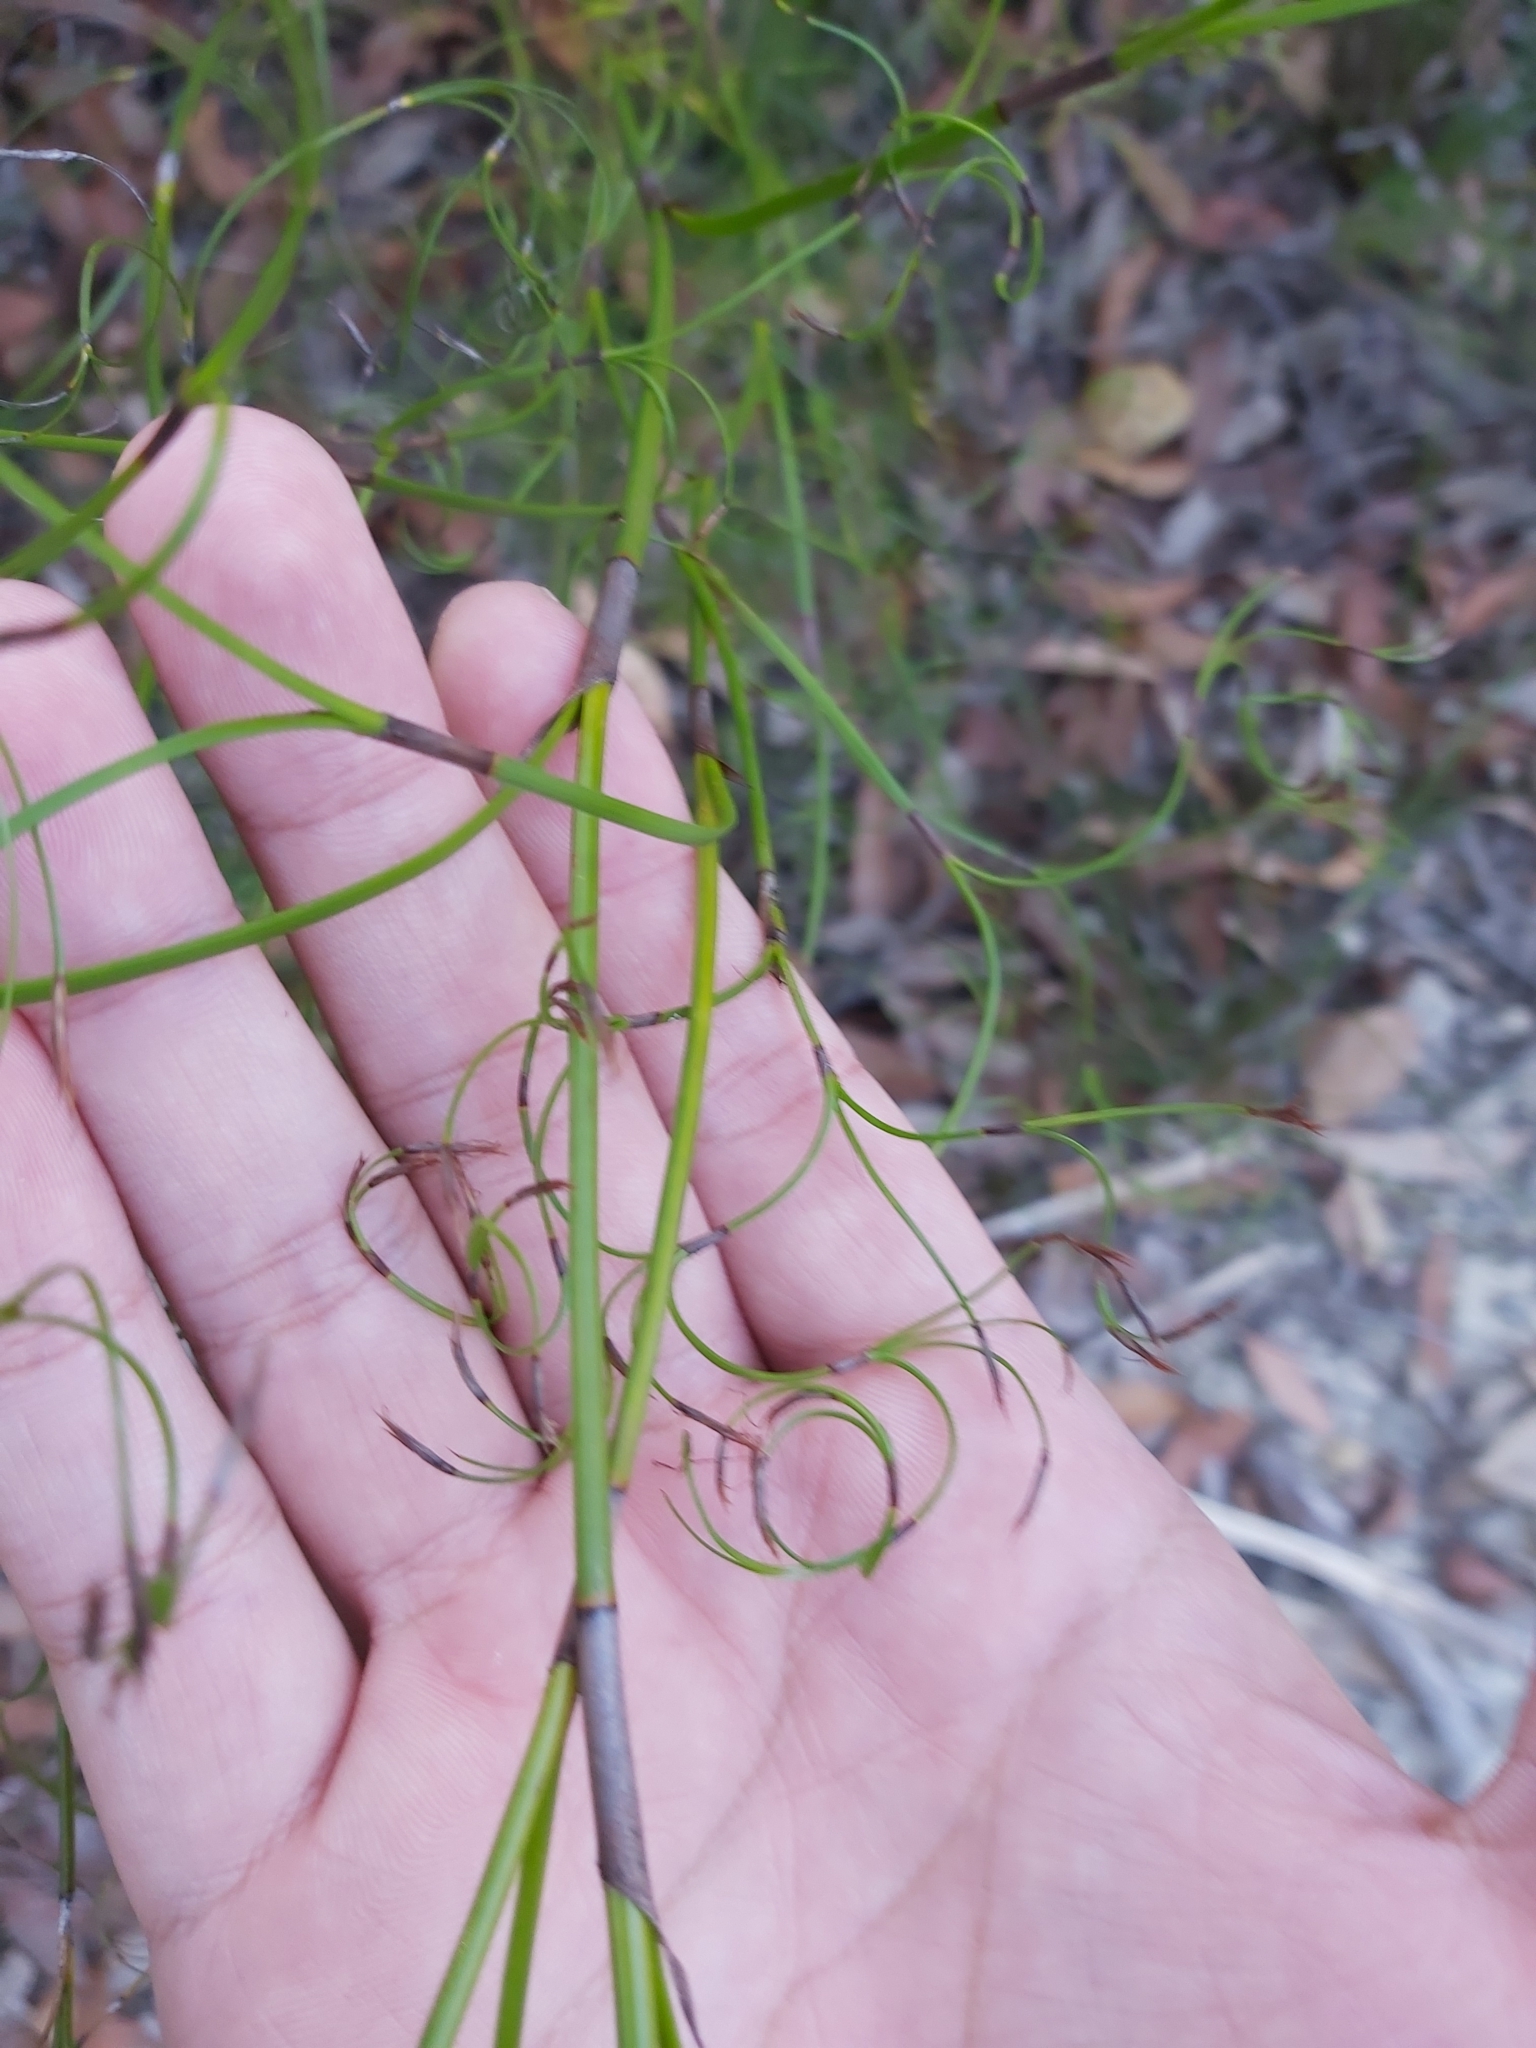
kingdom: Plantae
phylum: Tracheophyta
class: Liliopsida
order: Poales
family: Cyperaceae
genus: Caustis
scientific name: Caustis flexuosa
